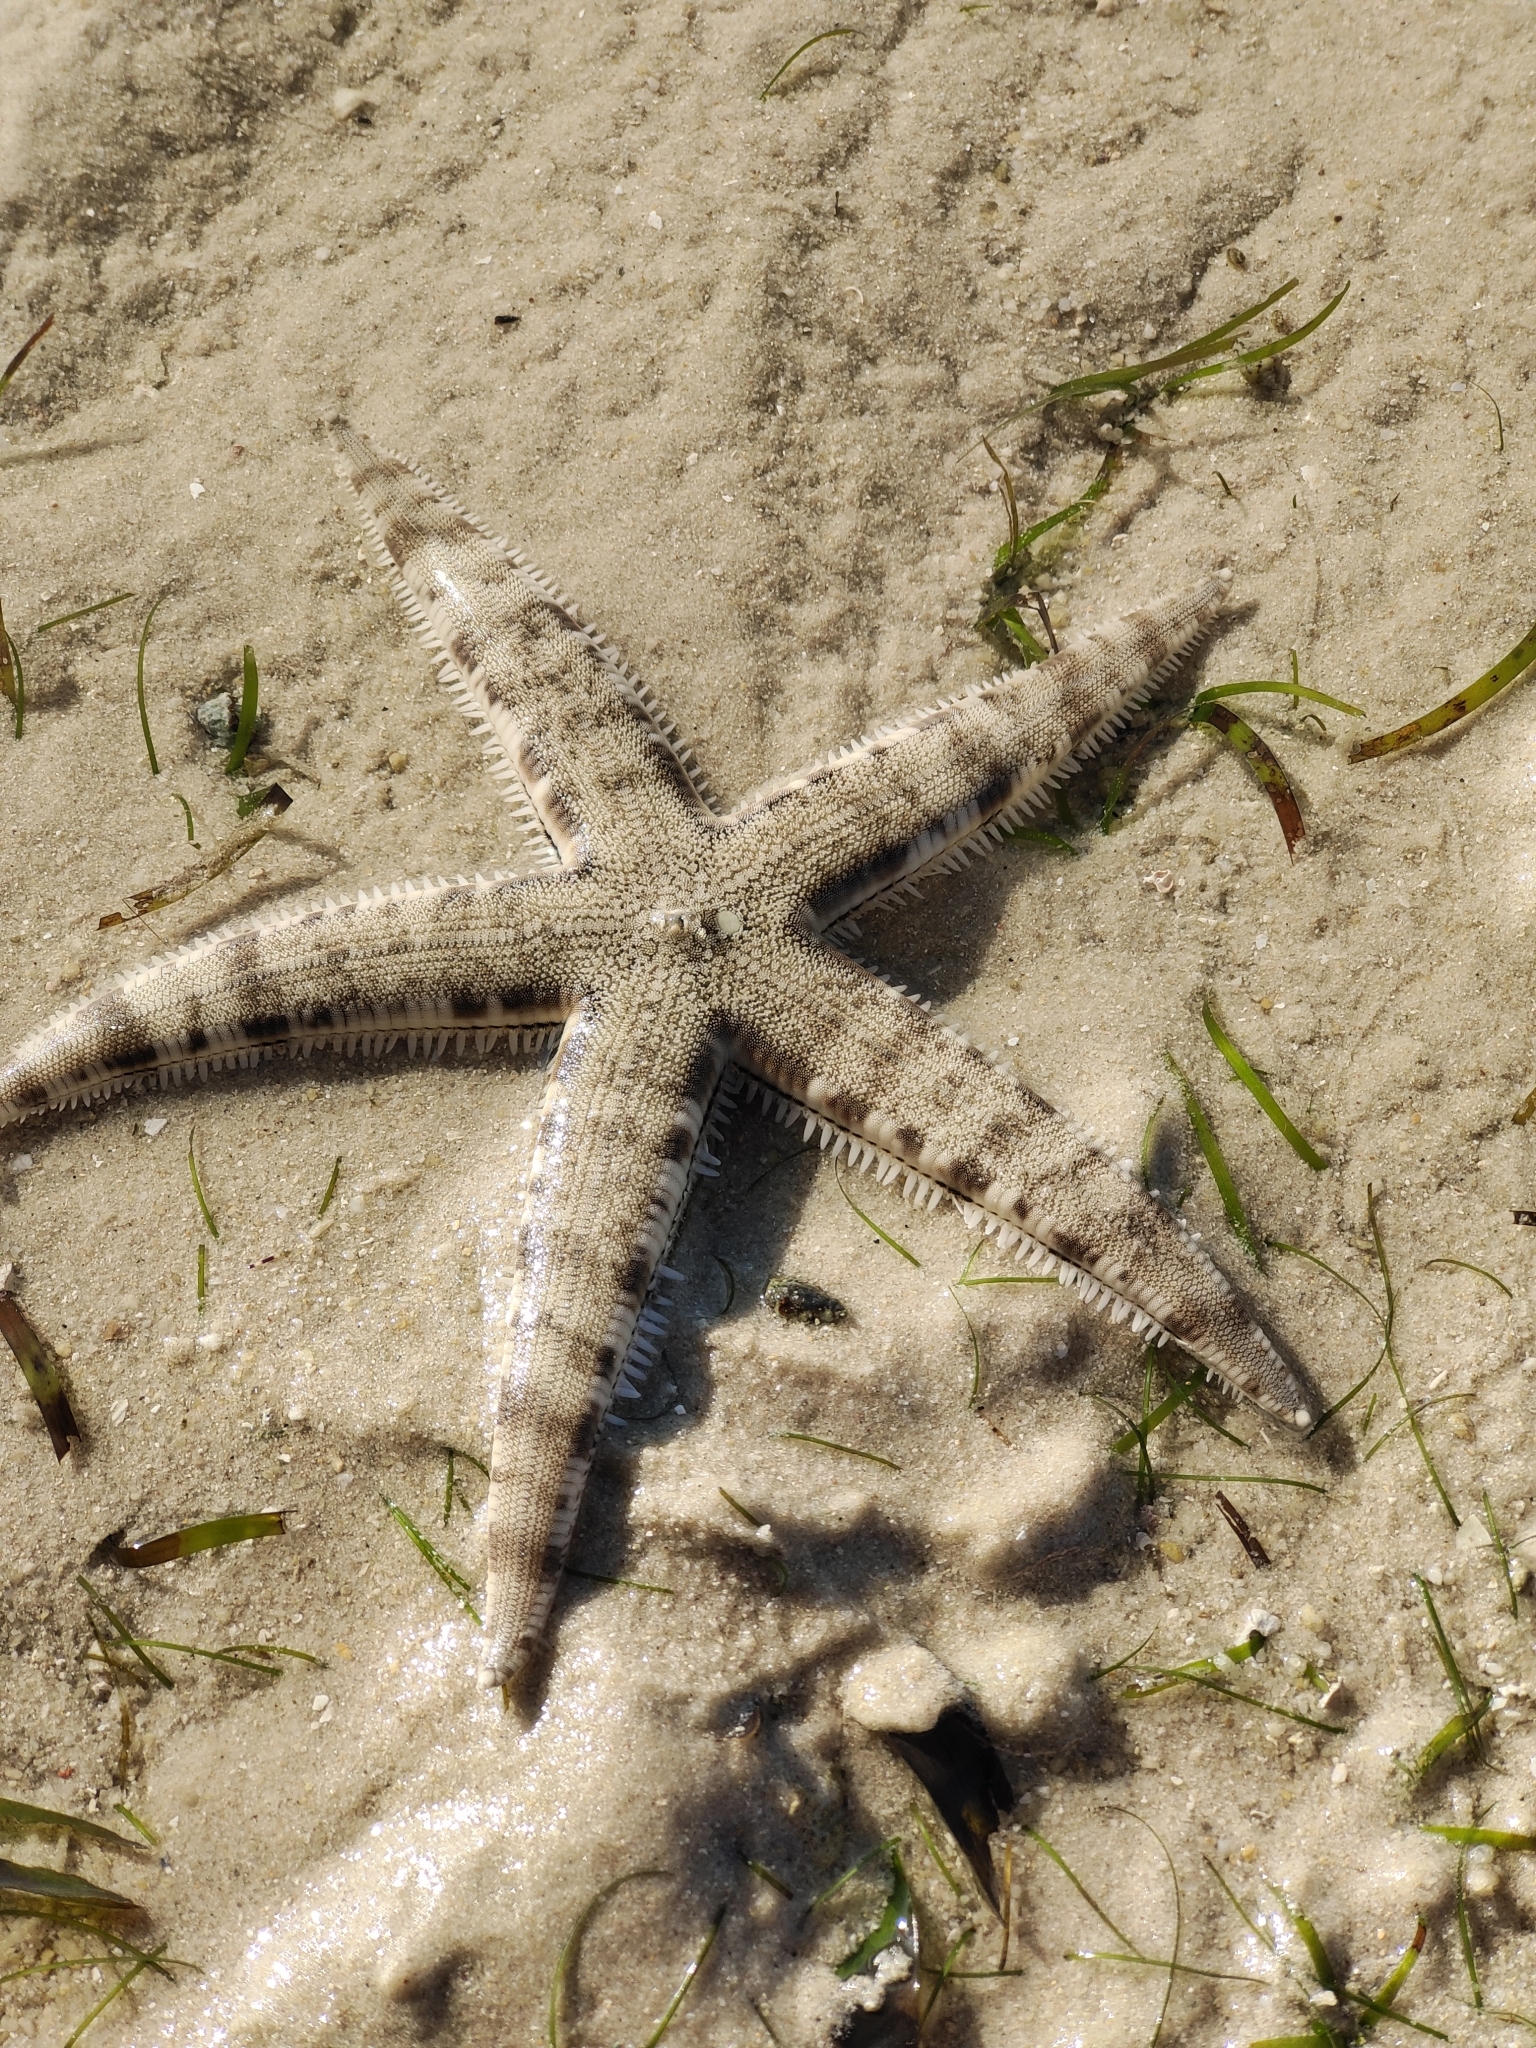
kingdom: Animalia
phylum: Echinodermata
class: Asteroidea
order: Valvatida
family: Archasteridae
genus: Archaster
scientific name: Archaster typicus
